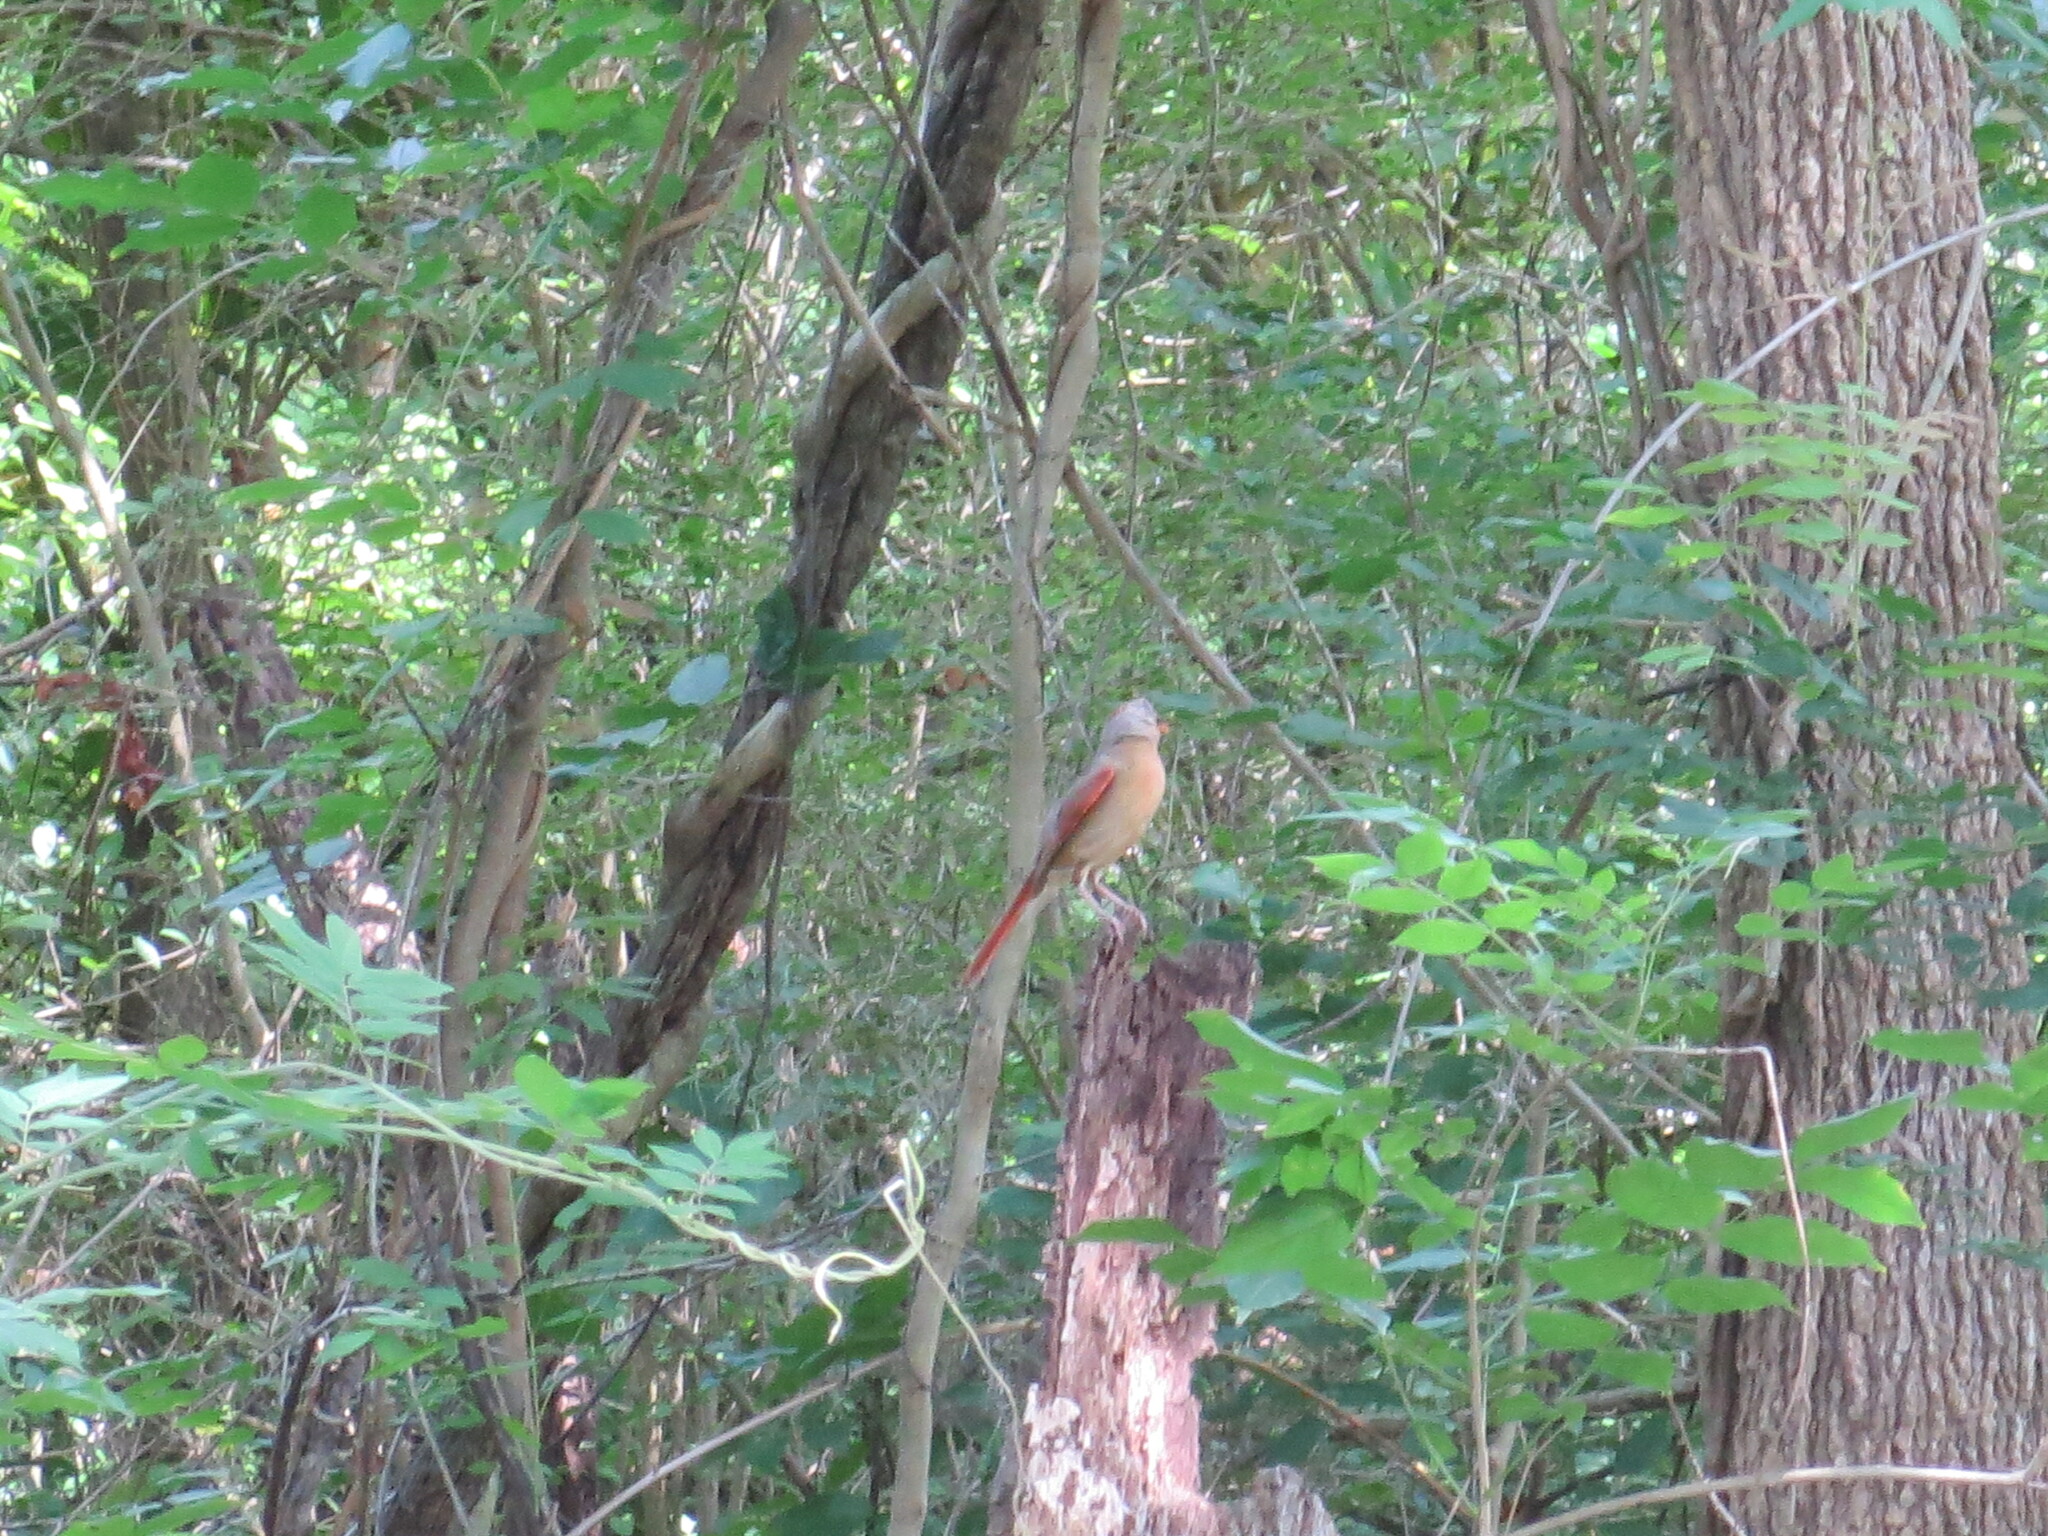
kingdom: Animalia
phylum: Chordata
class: Aves
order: Passeriformes
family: Cardinalidae
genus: Cardinalis
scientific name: Cardinalis cardinalis
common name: Northern cardinal
